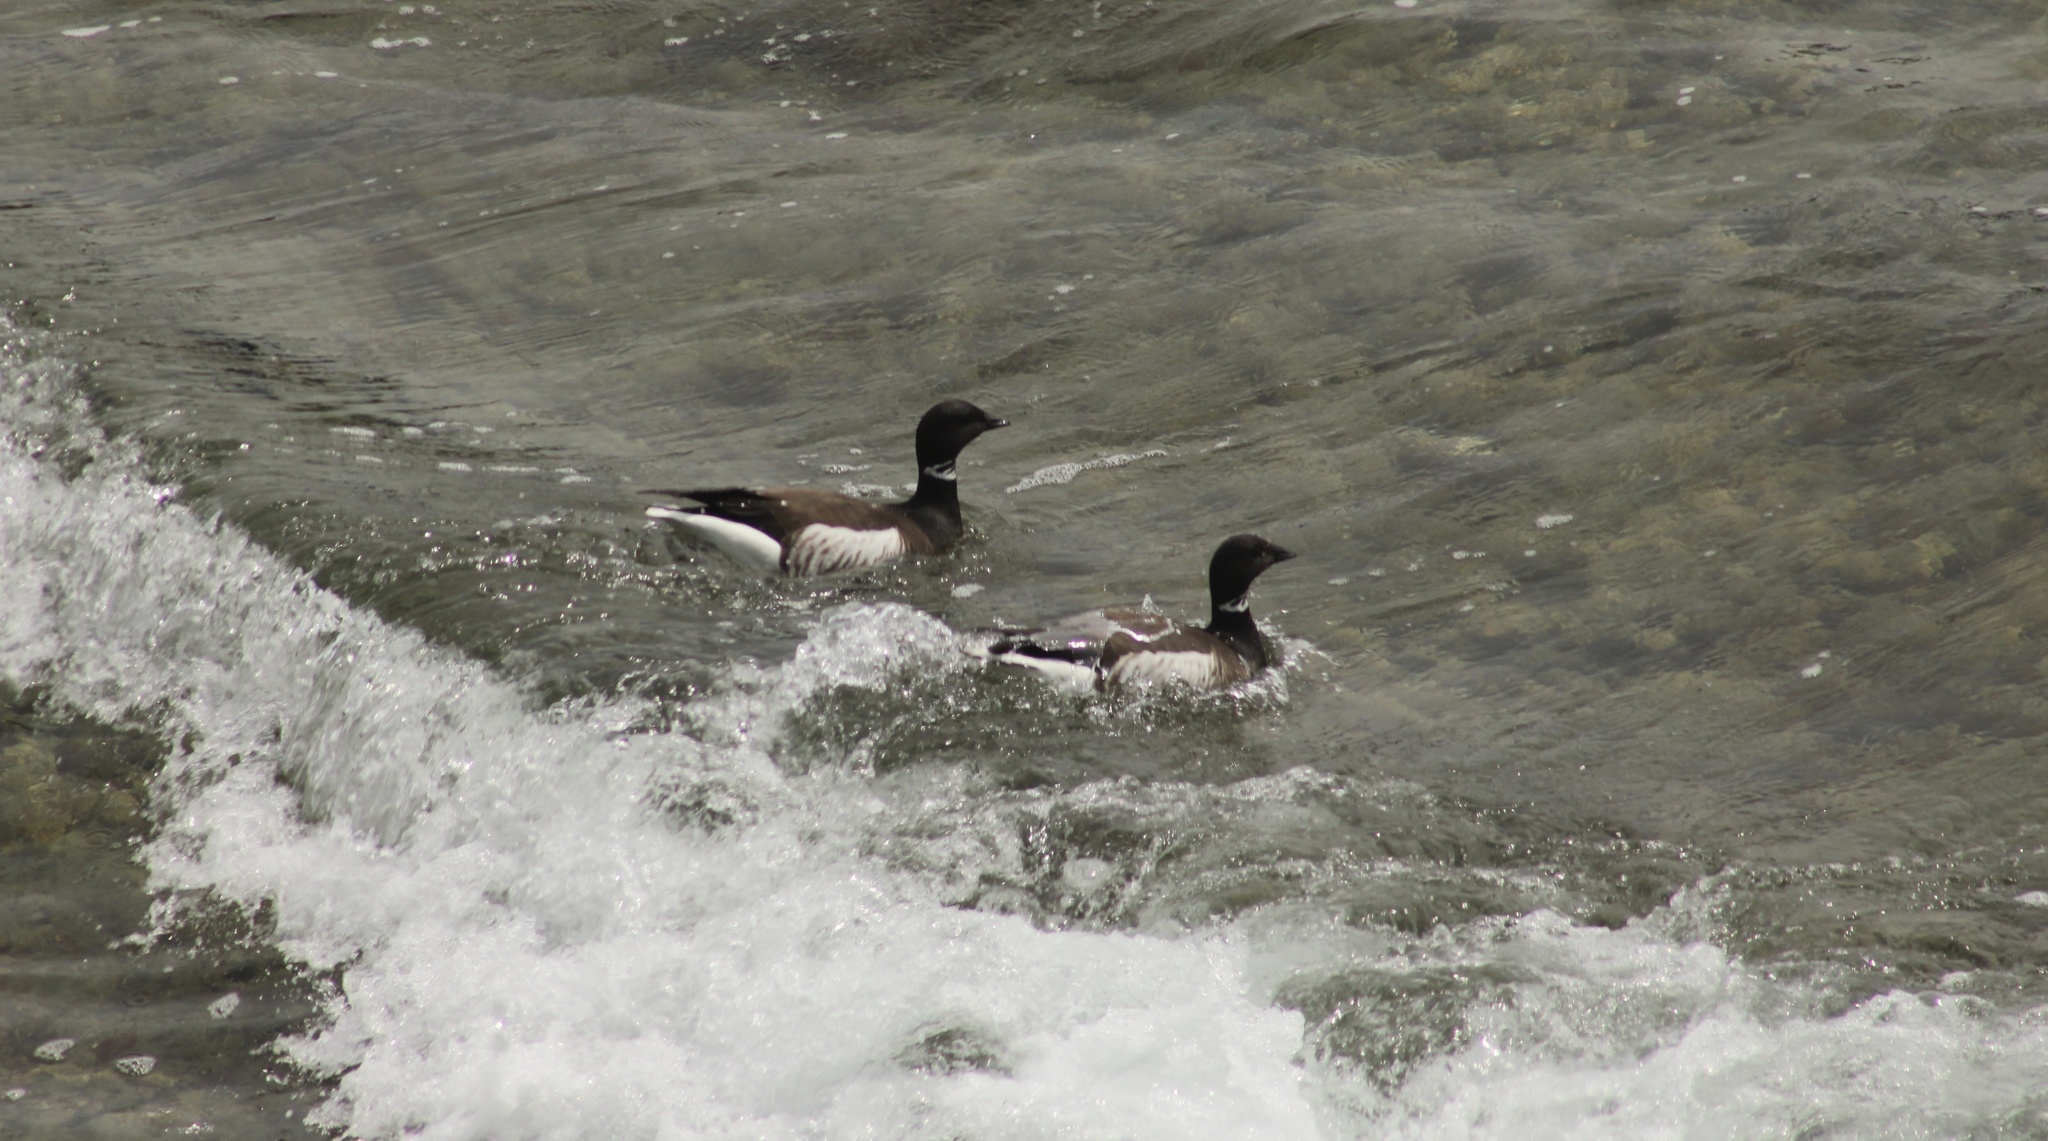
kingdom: Animalia
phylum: Chordata
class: Aves
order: Anseriformes
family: Anatidae
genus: Branta
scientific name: Branta bernicla
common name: Brant goose
